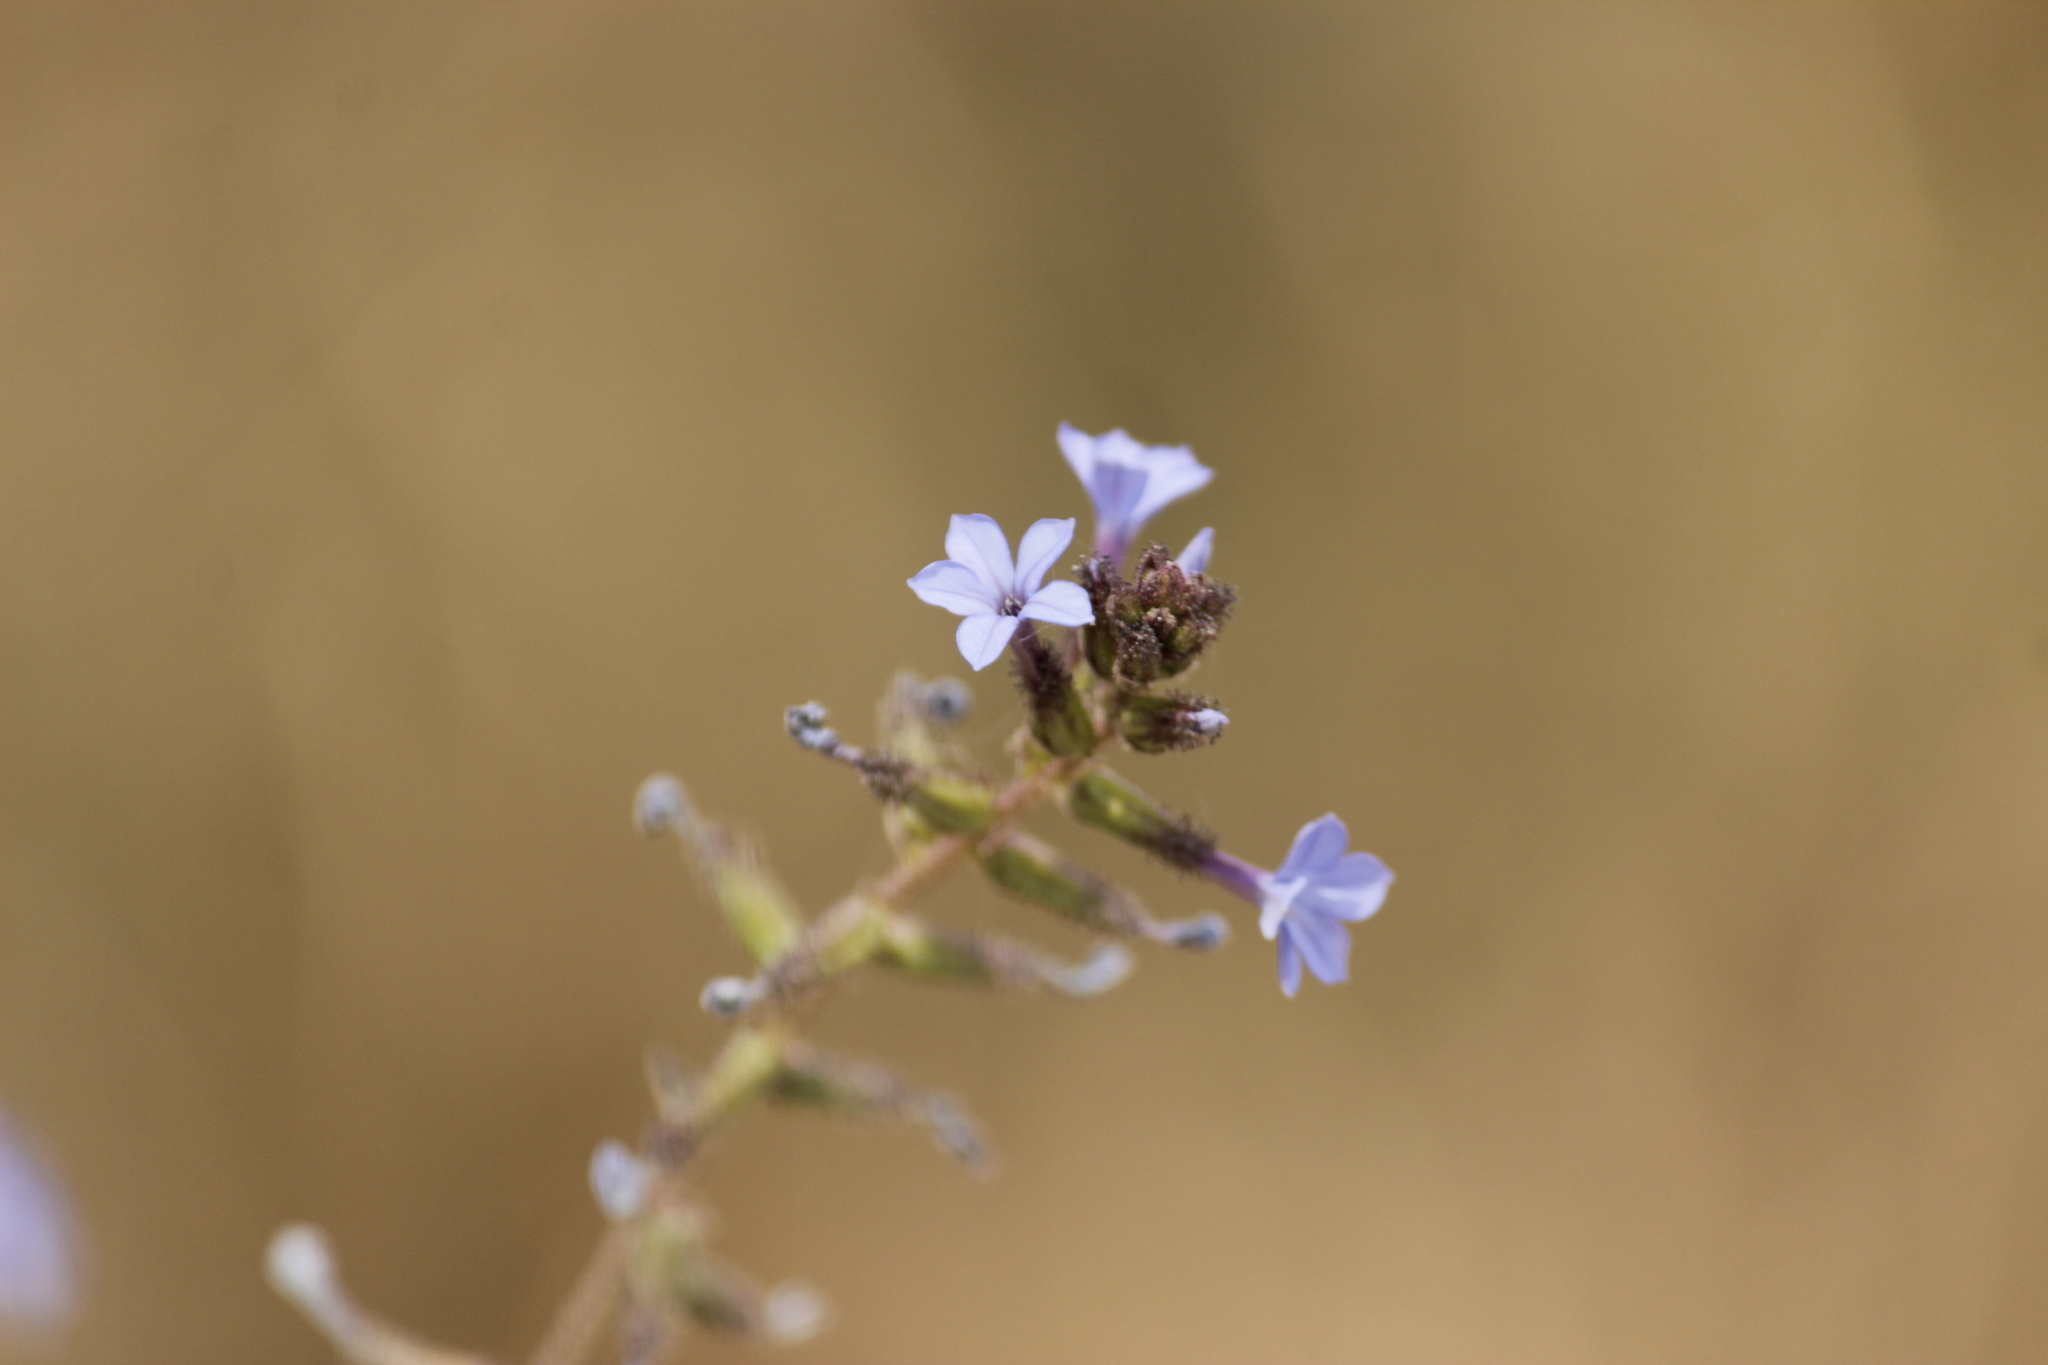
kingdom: Plantae
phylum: Tracheophyta
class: Magnoliopsida
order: Caryophyllales
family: Plumbaginaceae
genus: Plumbago
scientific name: Plumbago caerulea
